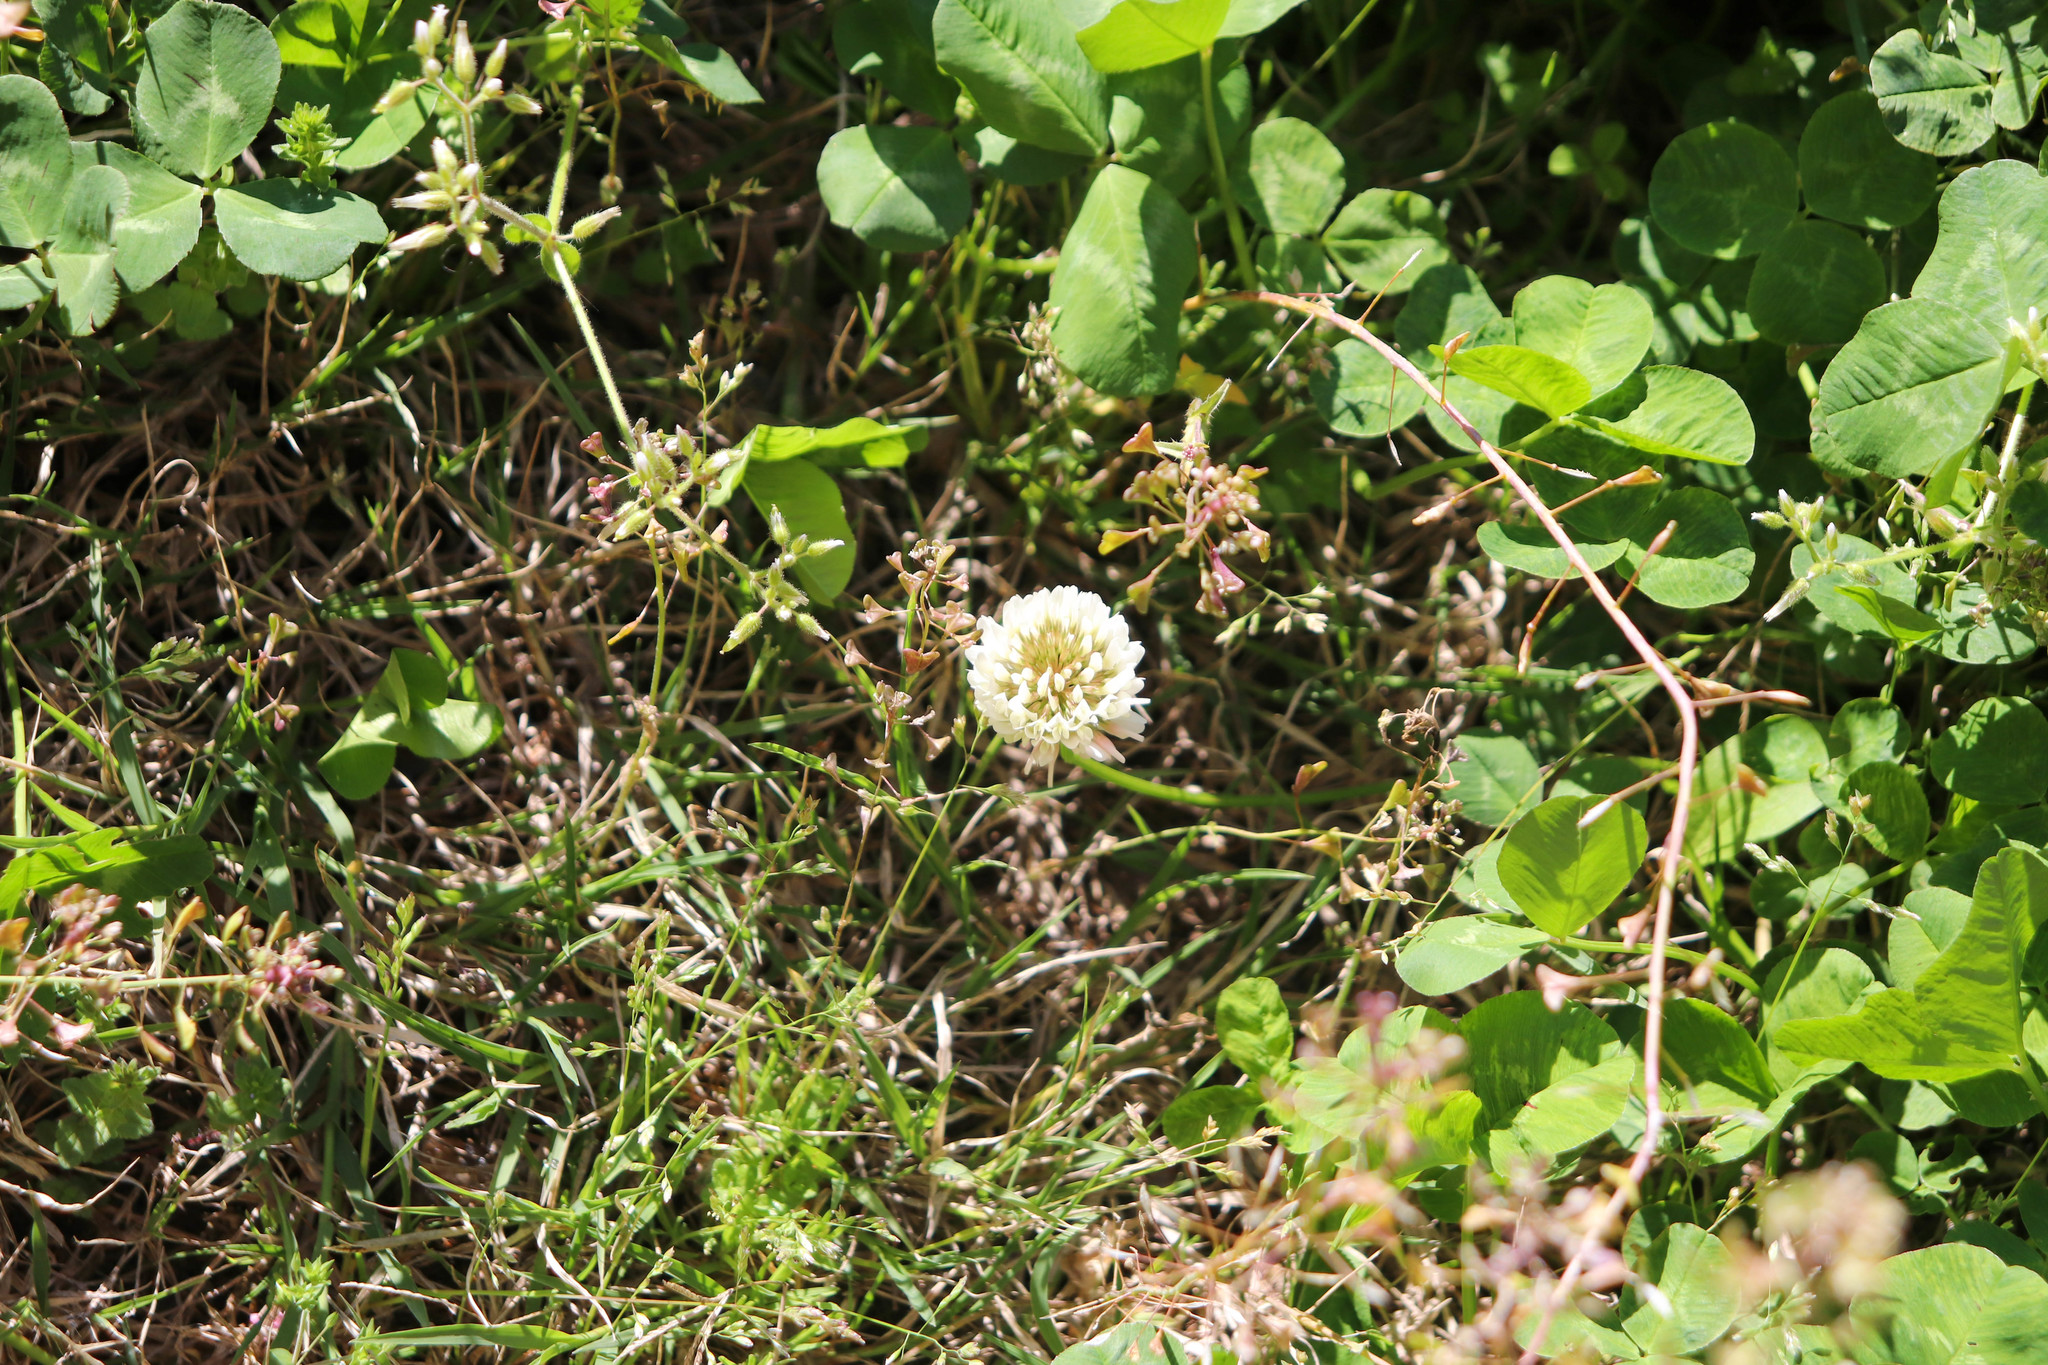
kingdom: Plantae
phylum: Tracheophyta
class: Magnoliopsida
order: Fabales
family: Fabaceae
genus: Trifolium
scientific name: Trifolium repens
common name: White clover
